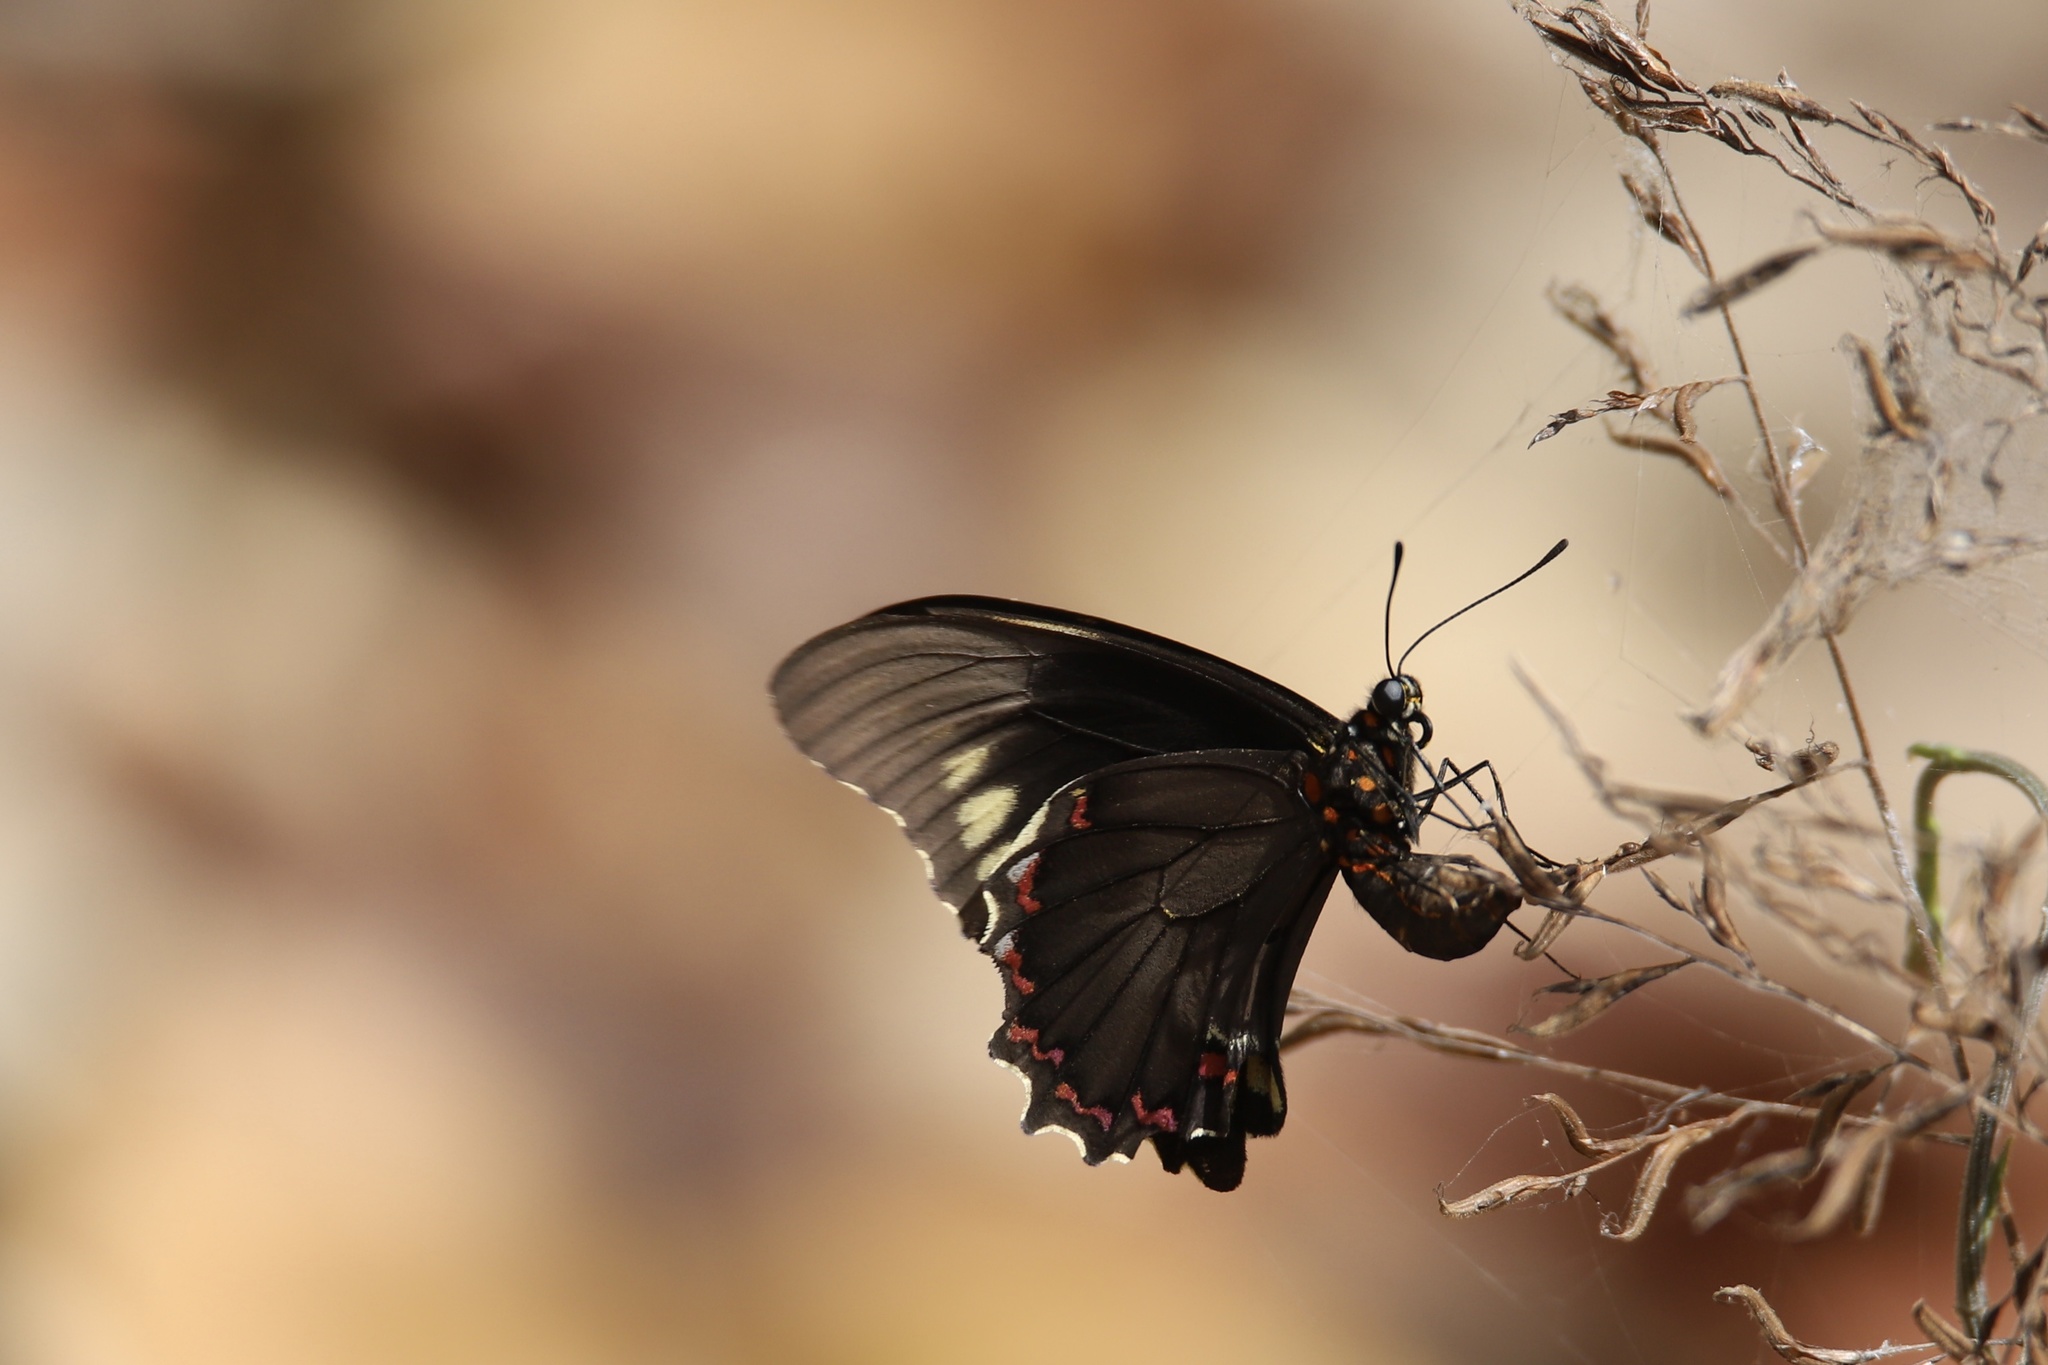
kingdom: Animalia
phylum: Arthropoda
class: Insecta
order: Lepidoptera
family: Papilionidae
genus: Battus
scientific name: Battus polydamas
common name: Polydamas swallowtail
